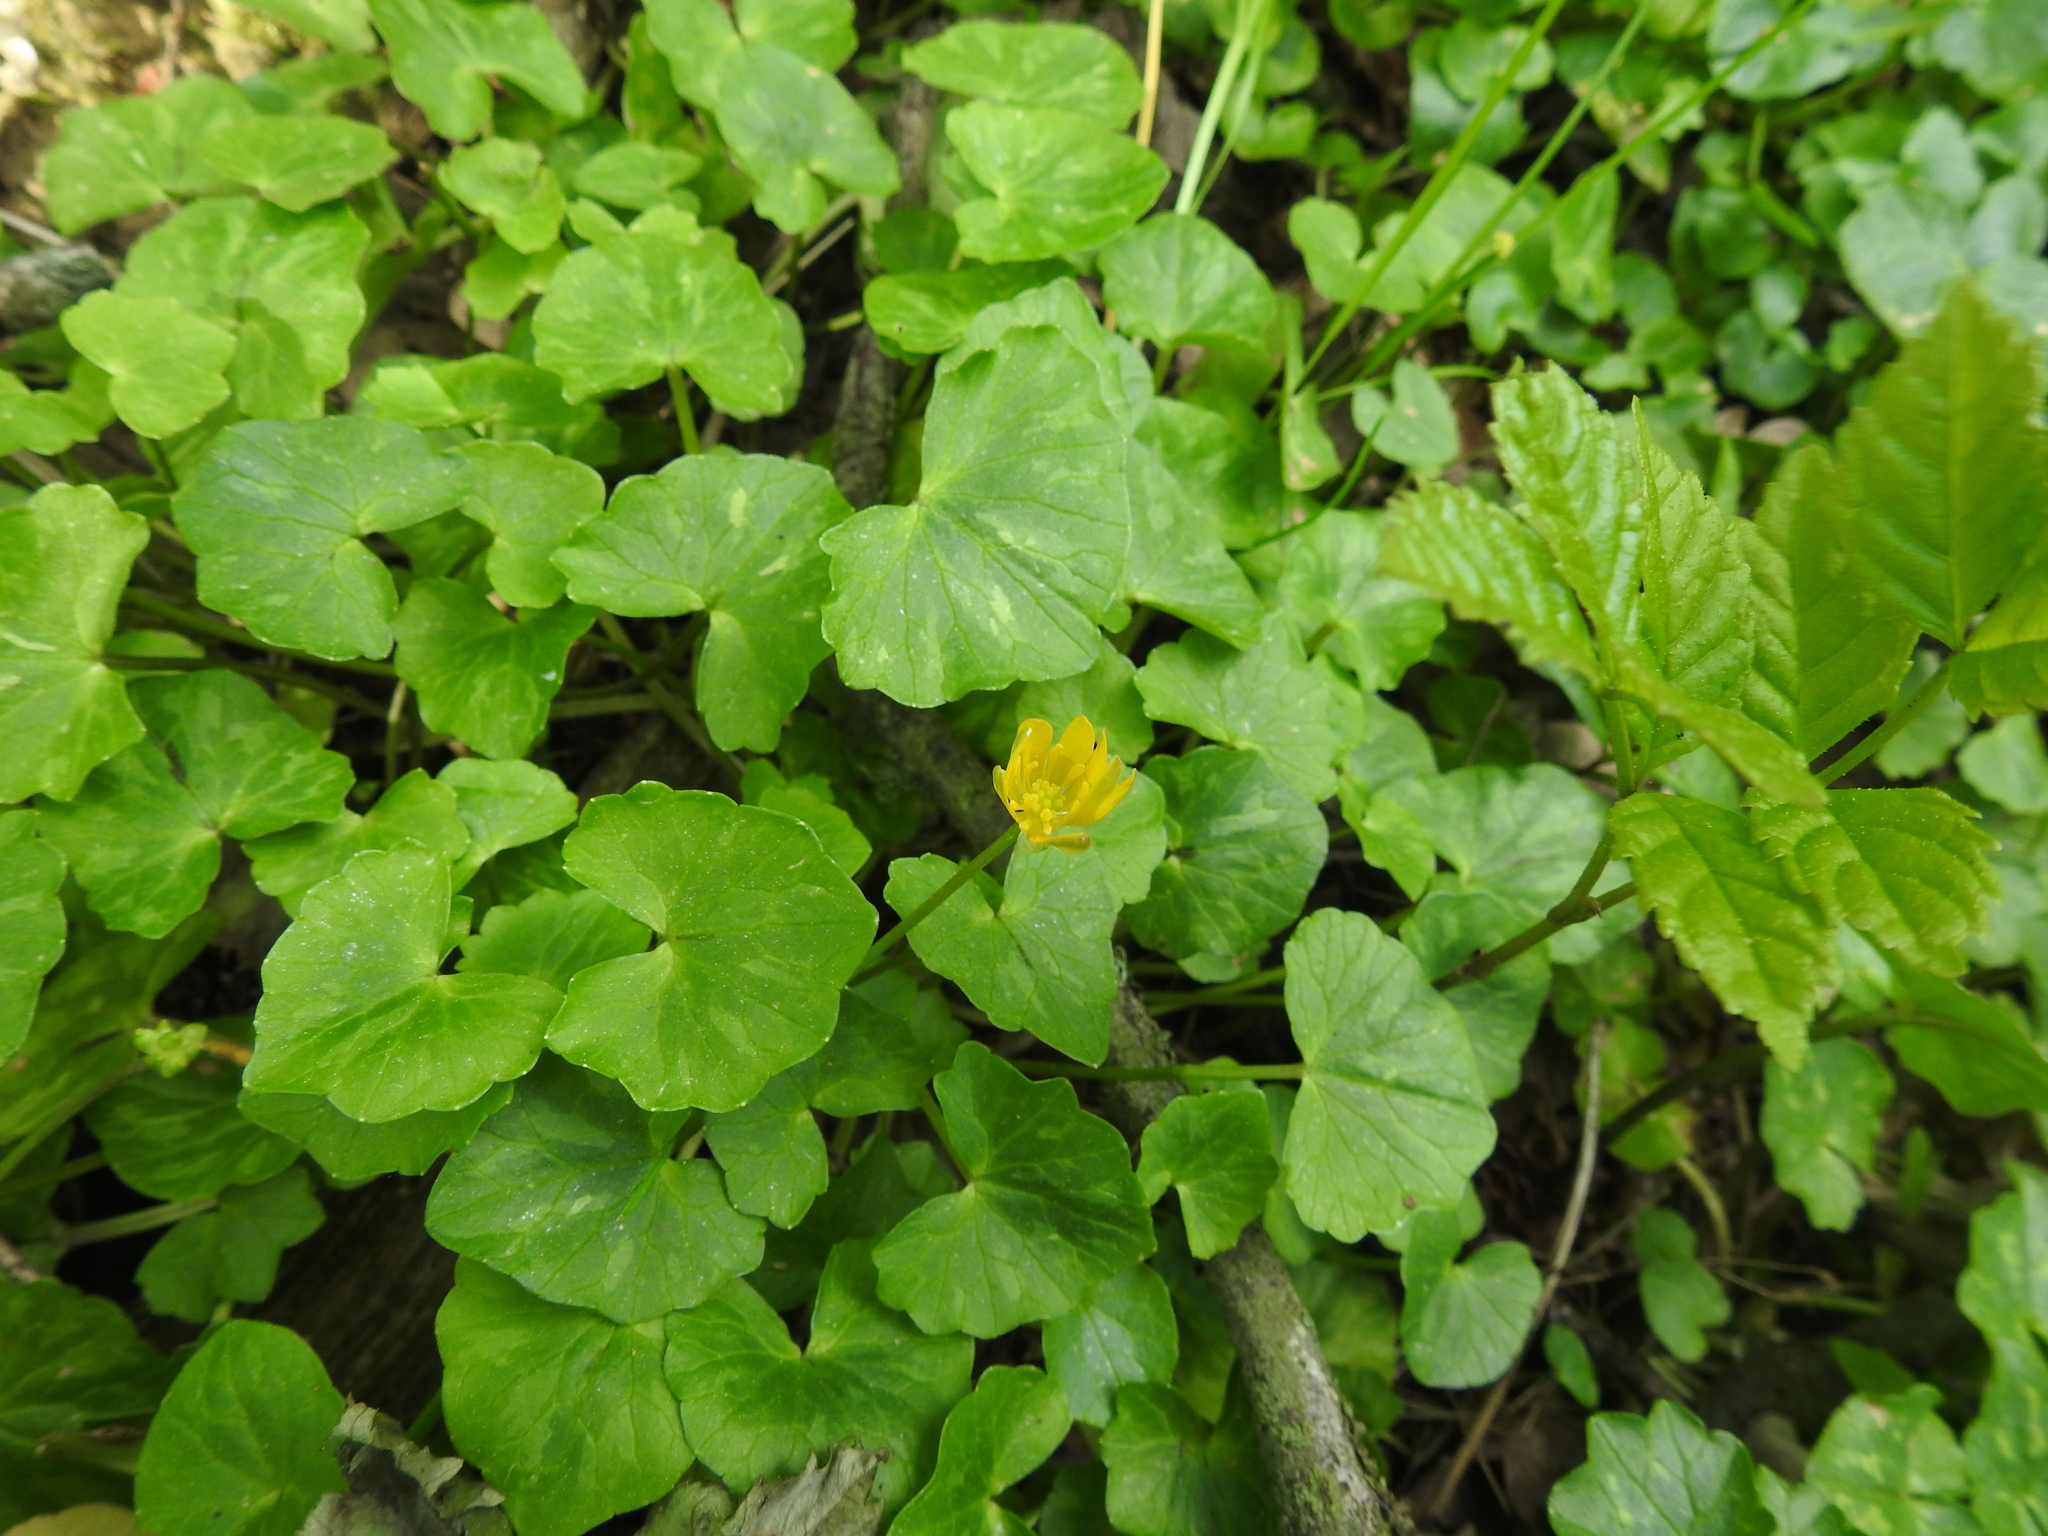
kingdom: Plantae
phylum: Tracheophyta
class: Magnoliopsida
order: Ranunculales
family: Ranunculaceae
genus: Ficaria
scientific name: Ficaria verna
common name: Lesser celandine
